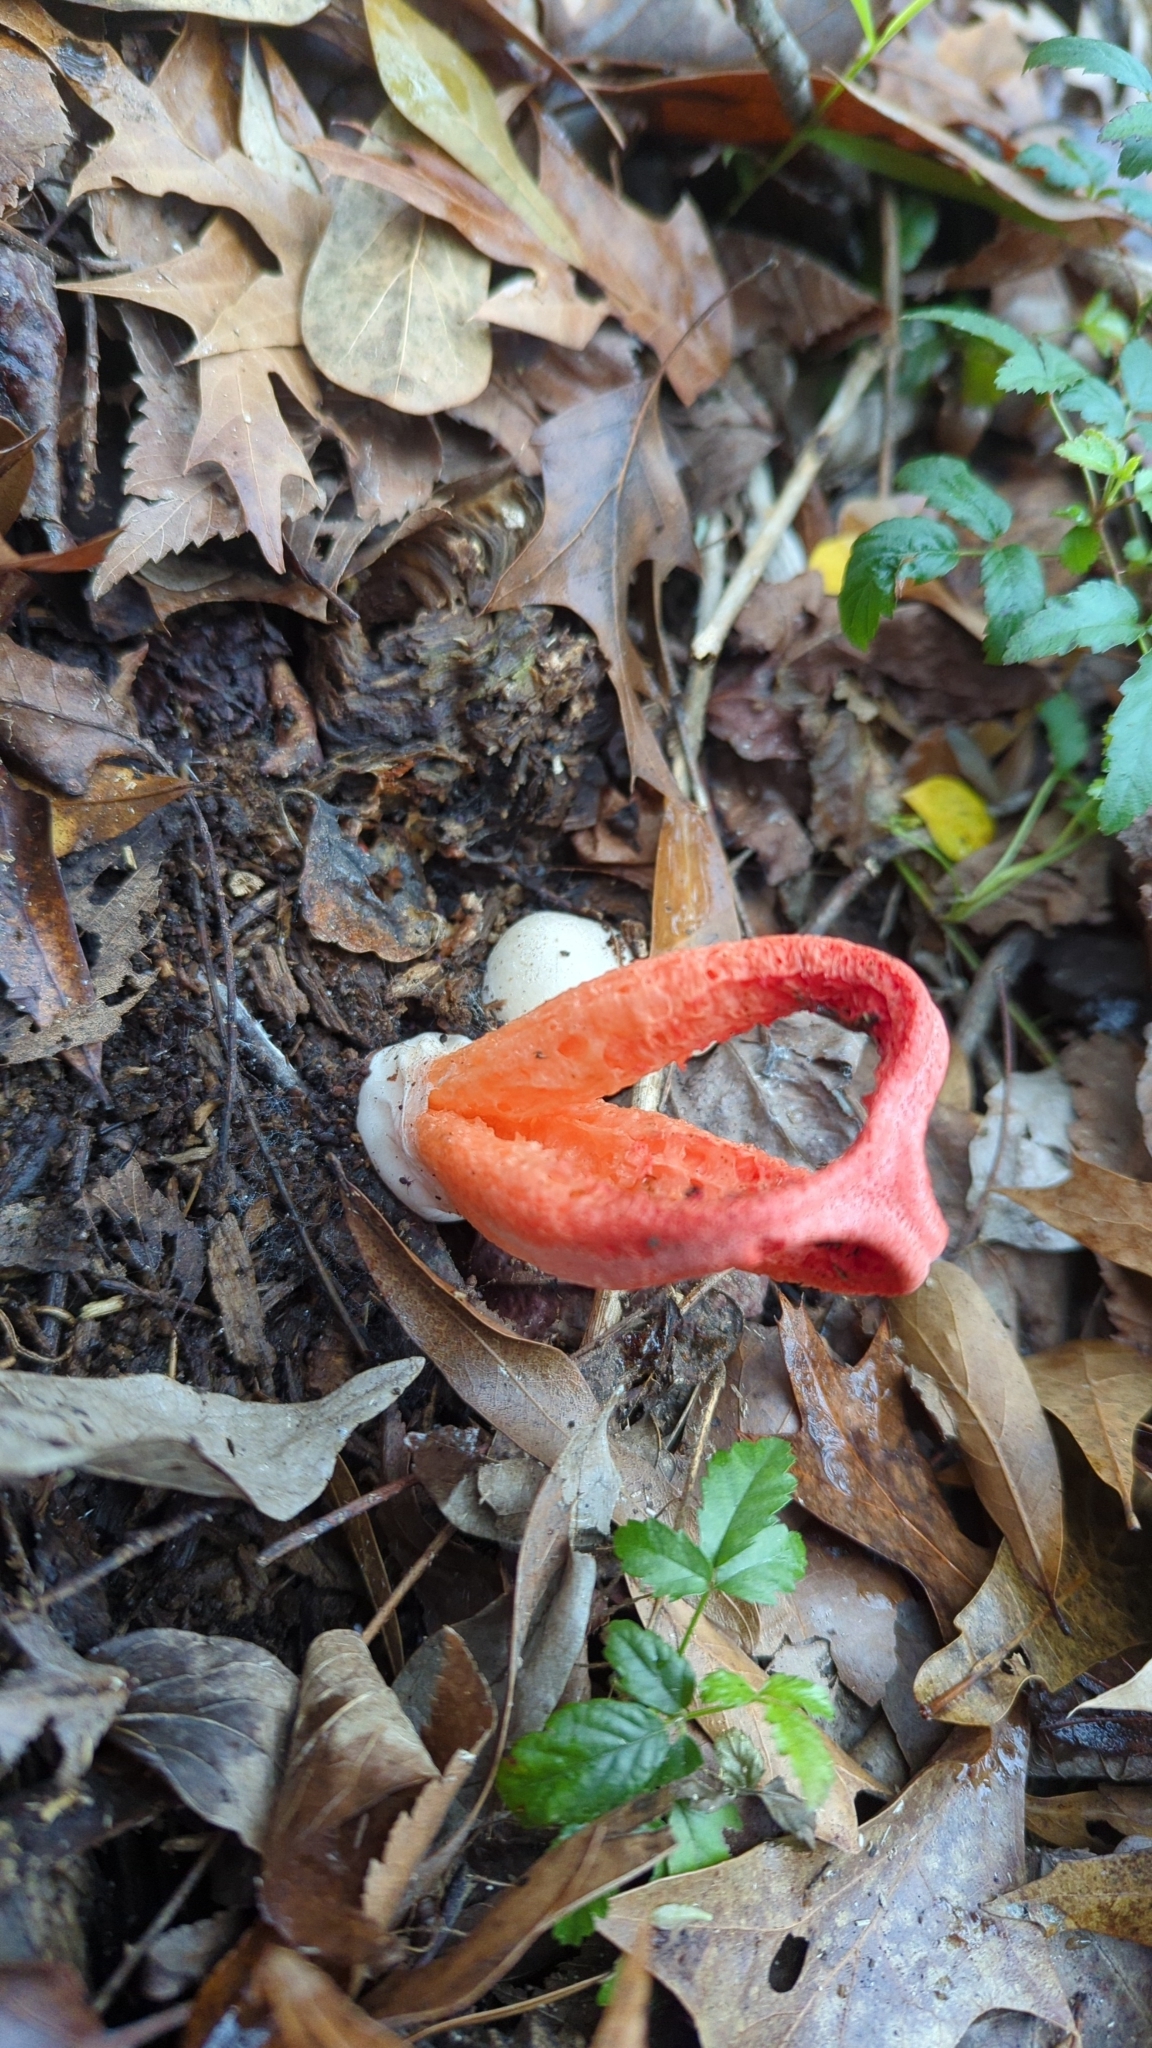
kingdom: Fungi
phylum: Basidiomycota
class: Agaricomycetes
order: Phallales
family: Phallaceae
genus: Clathrus
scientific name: Clathrus columnatus
